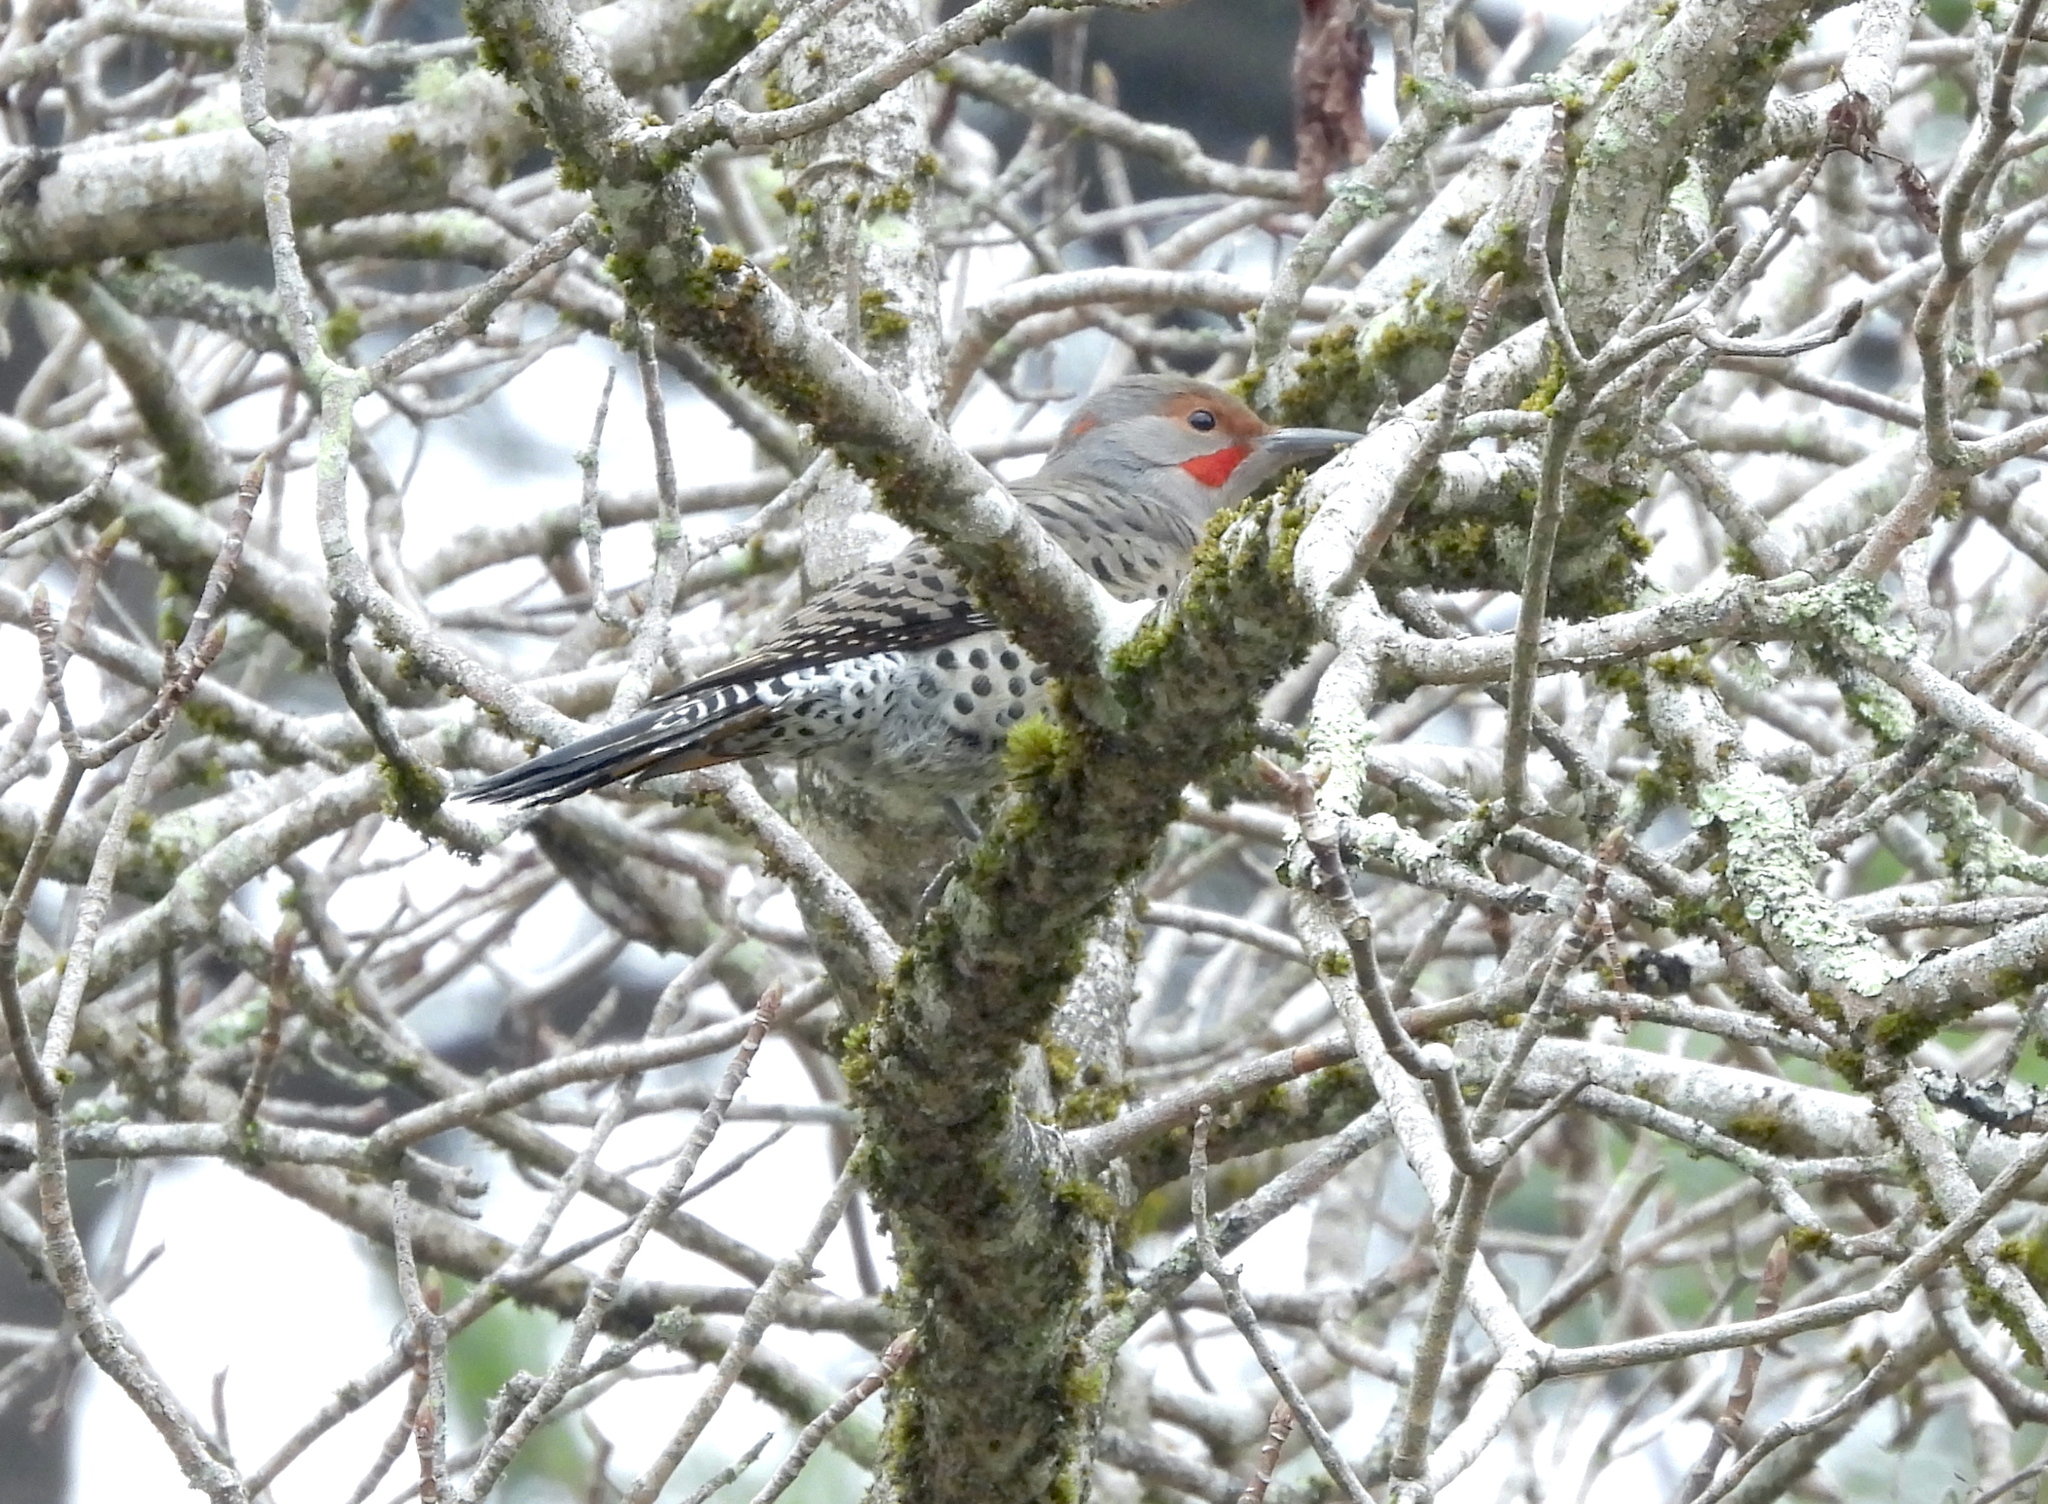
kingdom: Animalia
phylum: Chordata
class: Aves
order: Piciformes
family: Picidae
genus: Colaptes
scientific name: Colaptes
